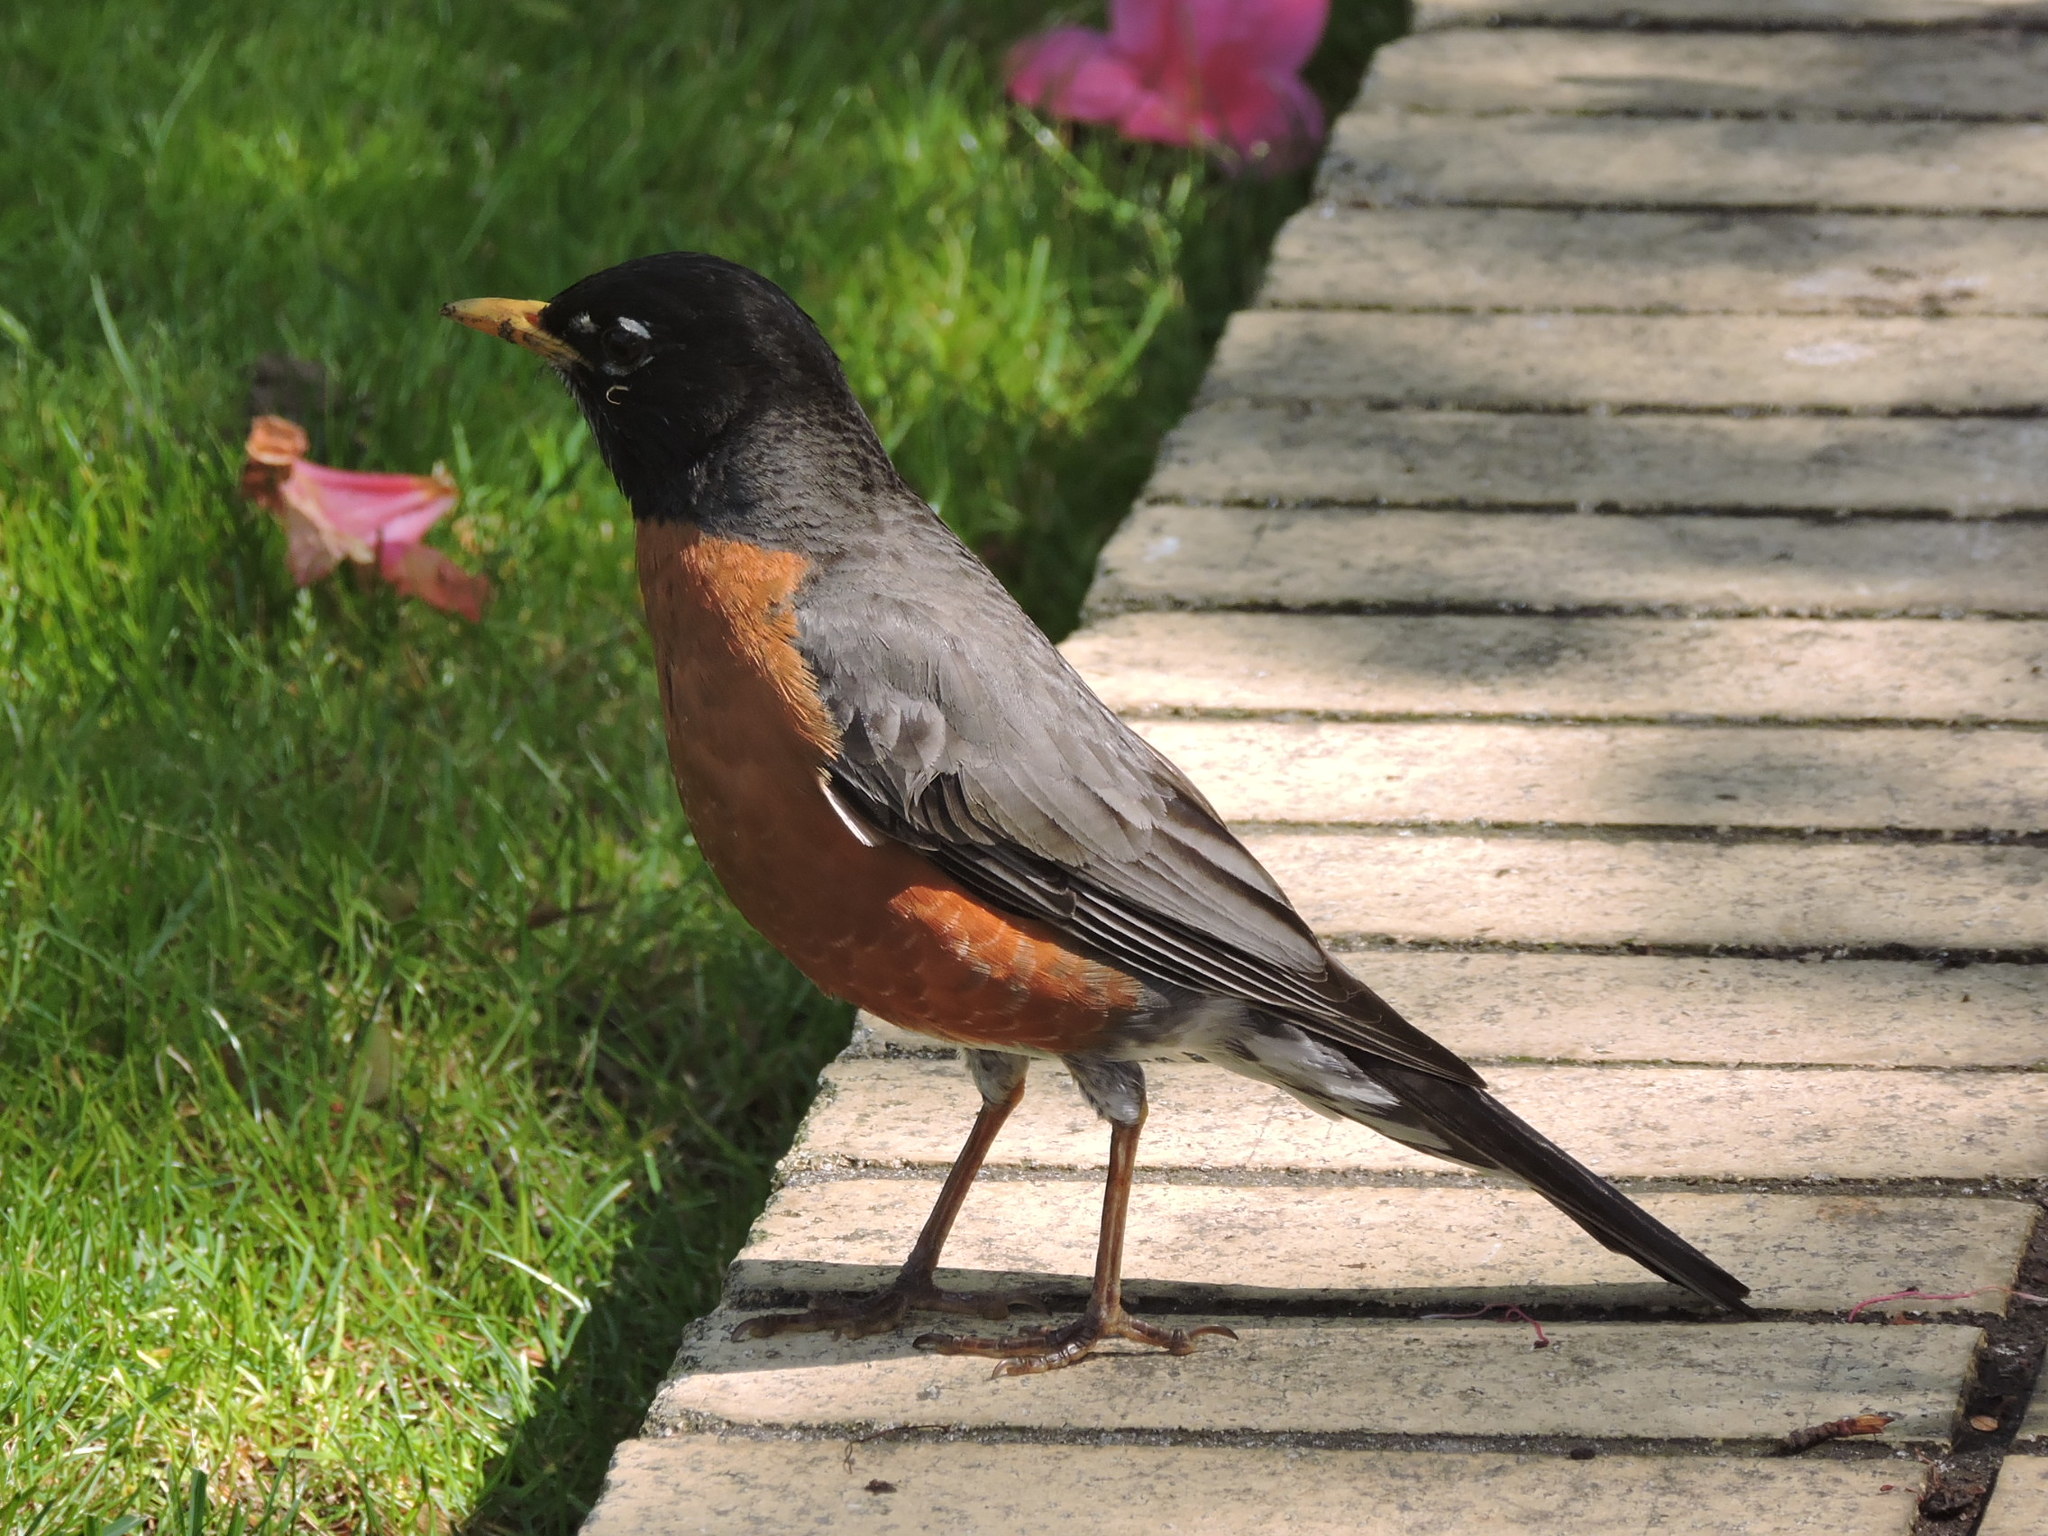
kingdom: Animalia
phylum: Chordata
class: Aves
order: Passeriformes
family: Turdidae
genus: Turdus
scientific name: Turdus migratorius
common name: American robin
